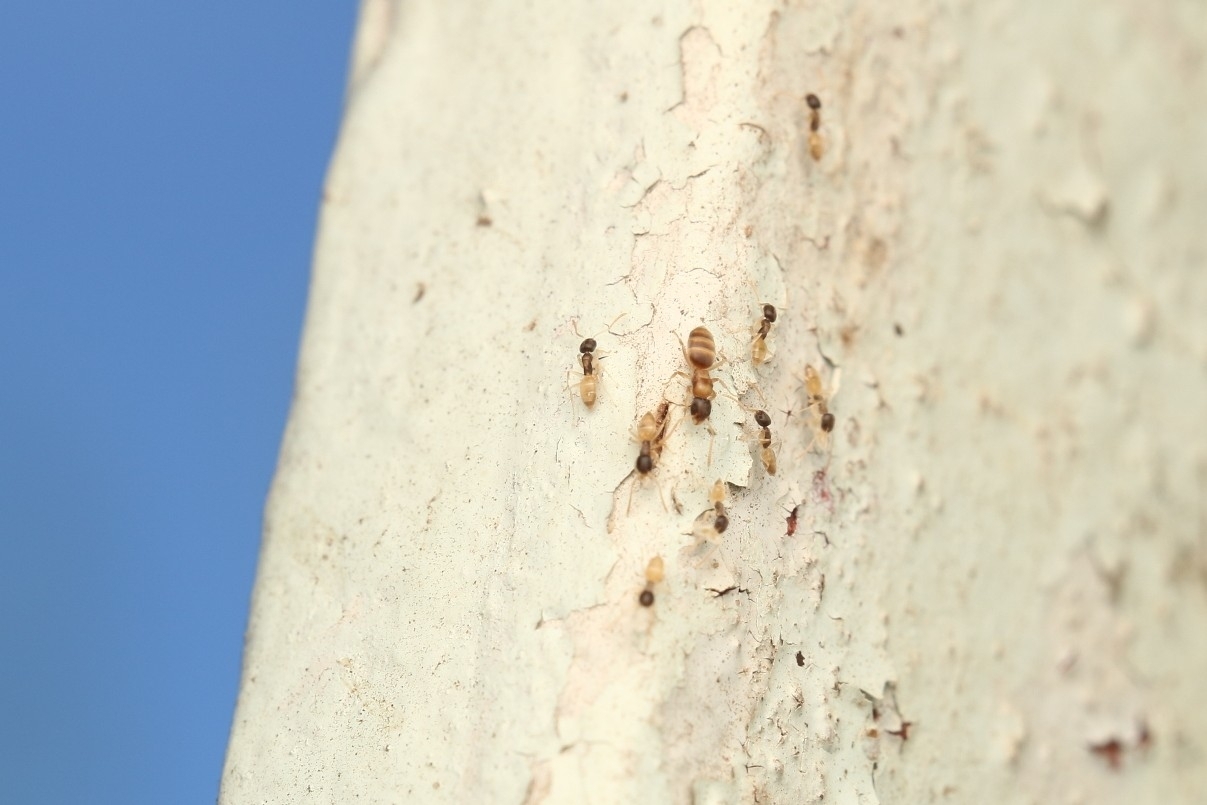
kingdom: Animalia
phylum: Arthropoda
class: Insecta
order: Hymenoptera
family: Formicidae
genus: Tapinoma
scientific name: Tapinoma melanocephalum
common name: Ghost ant
